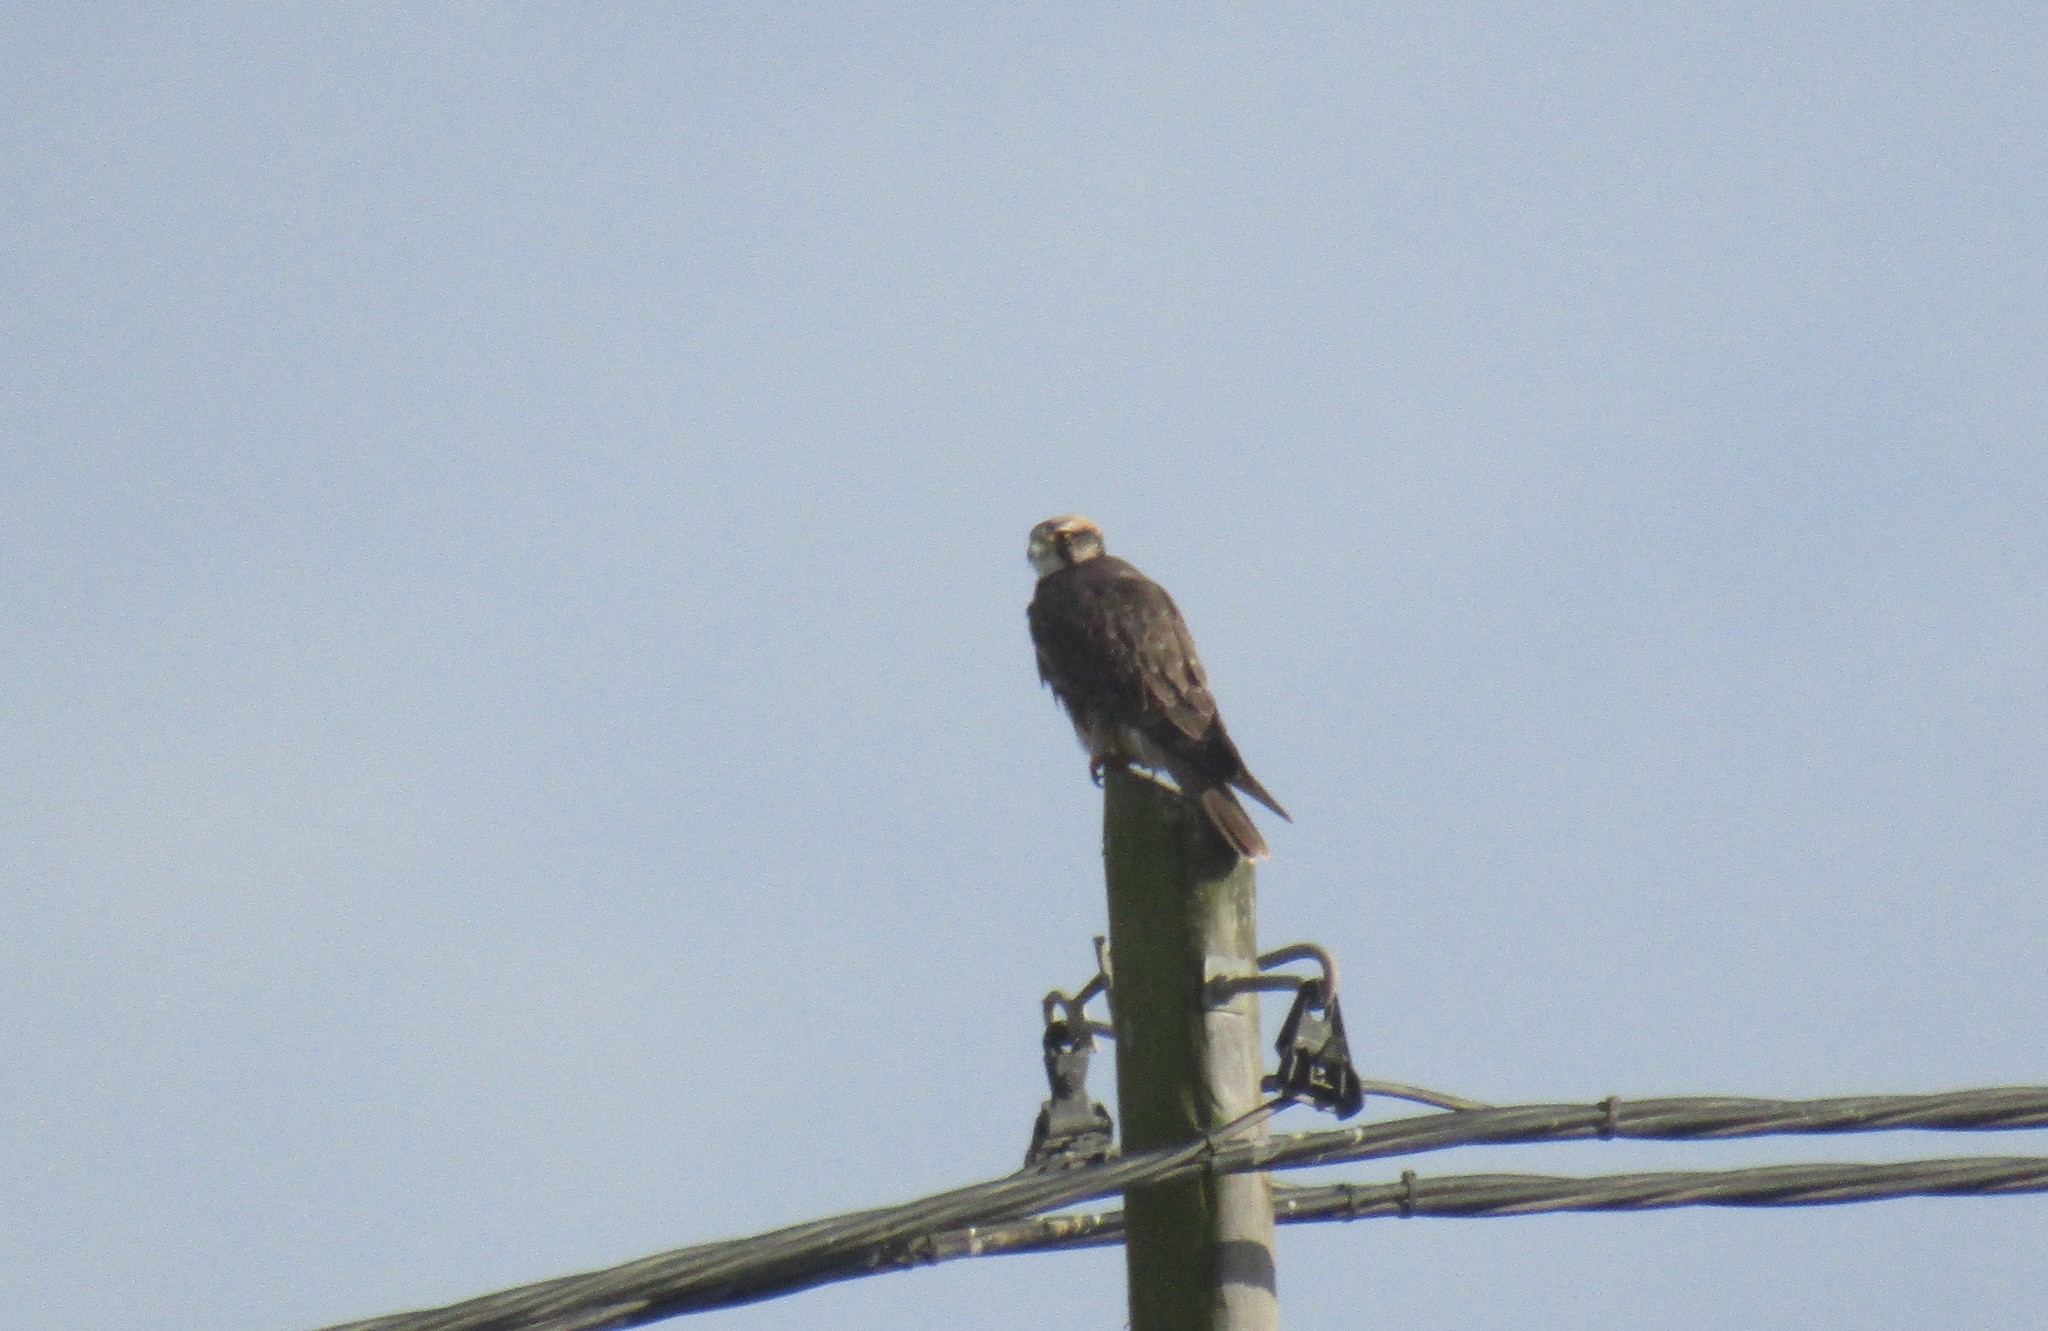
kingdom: Animalia
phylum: Chordata
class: Aves
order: Falconiformes
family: Falconidae
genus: Falco
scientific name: Falco biarmicus
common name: Lanner falcon
